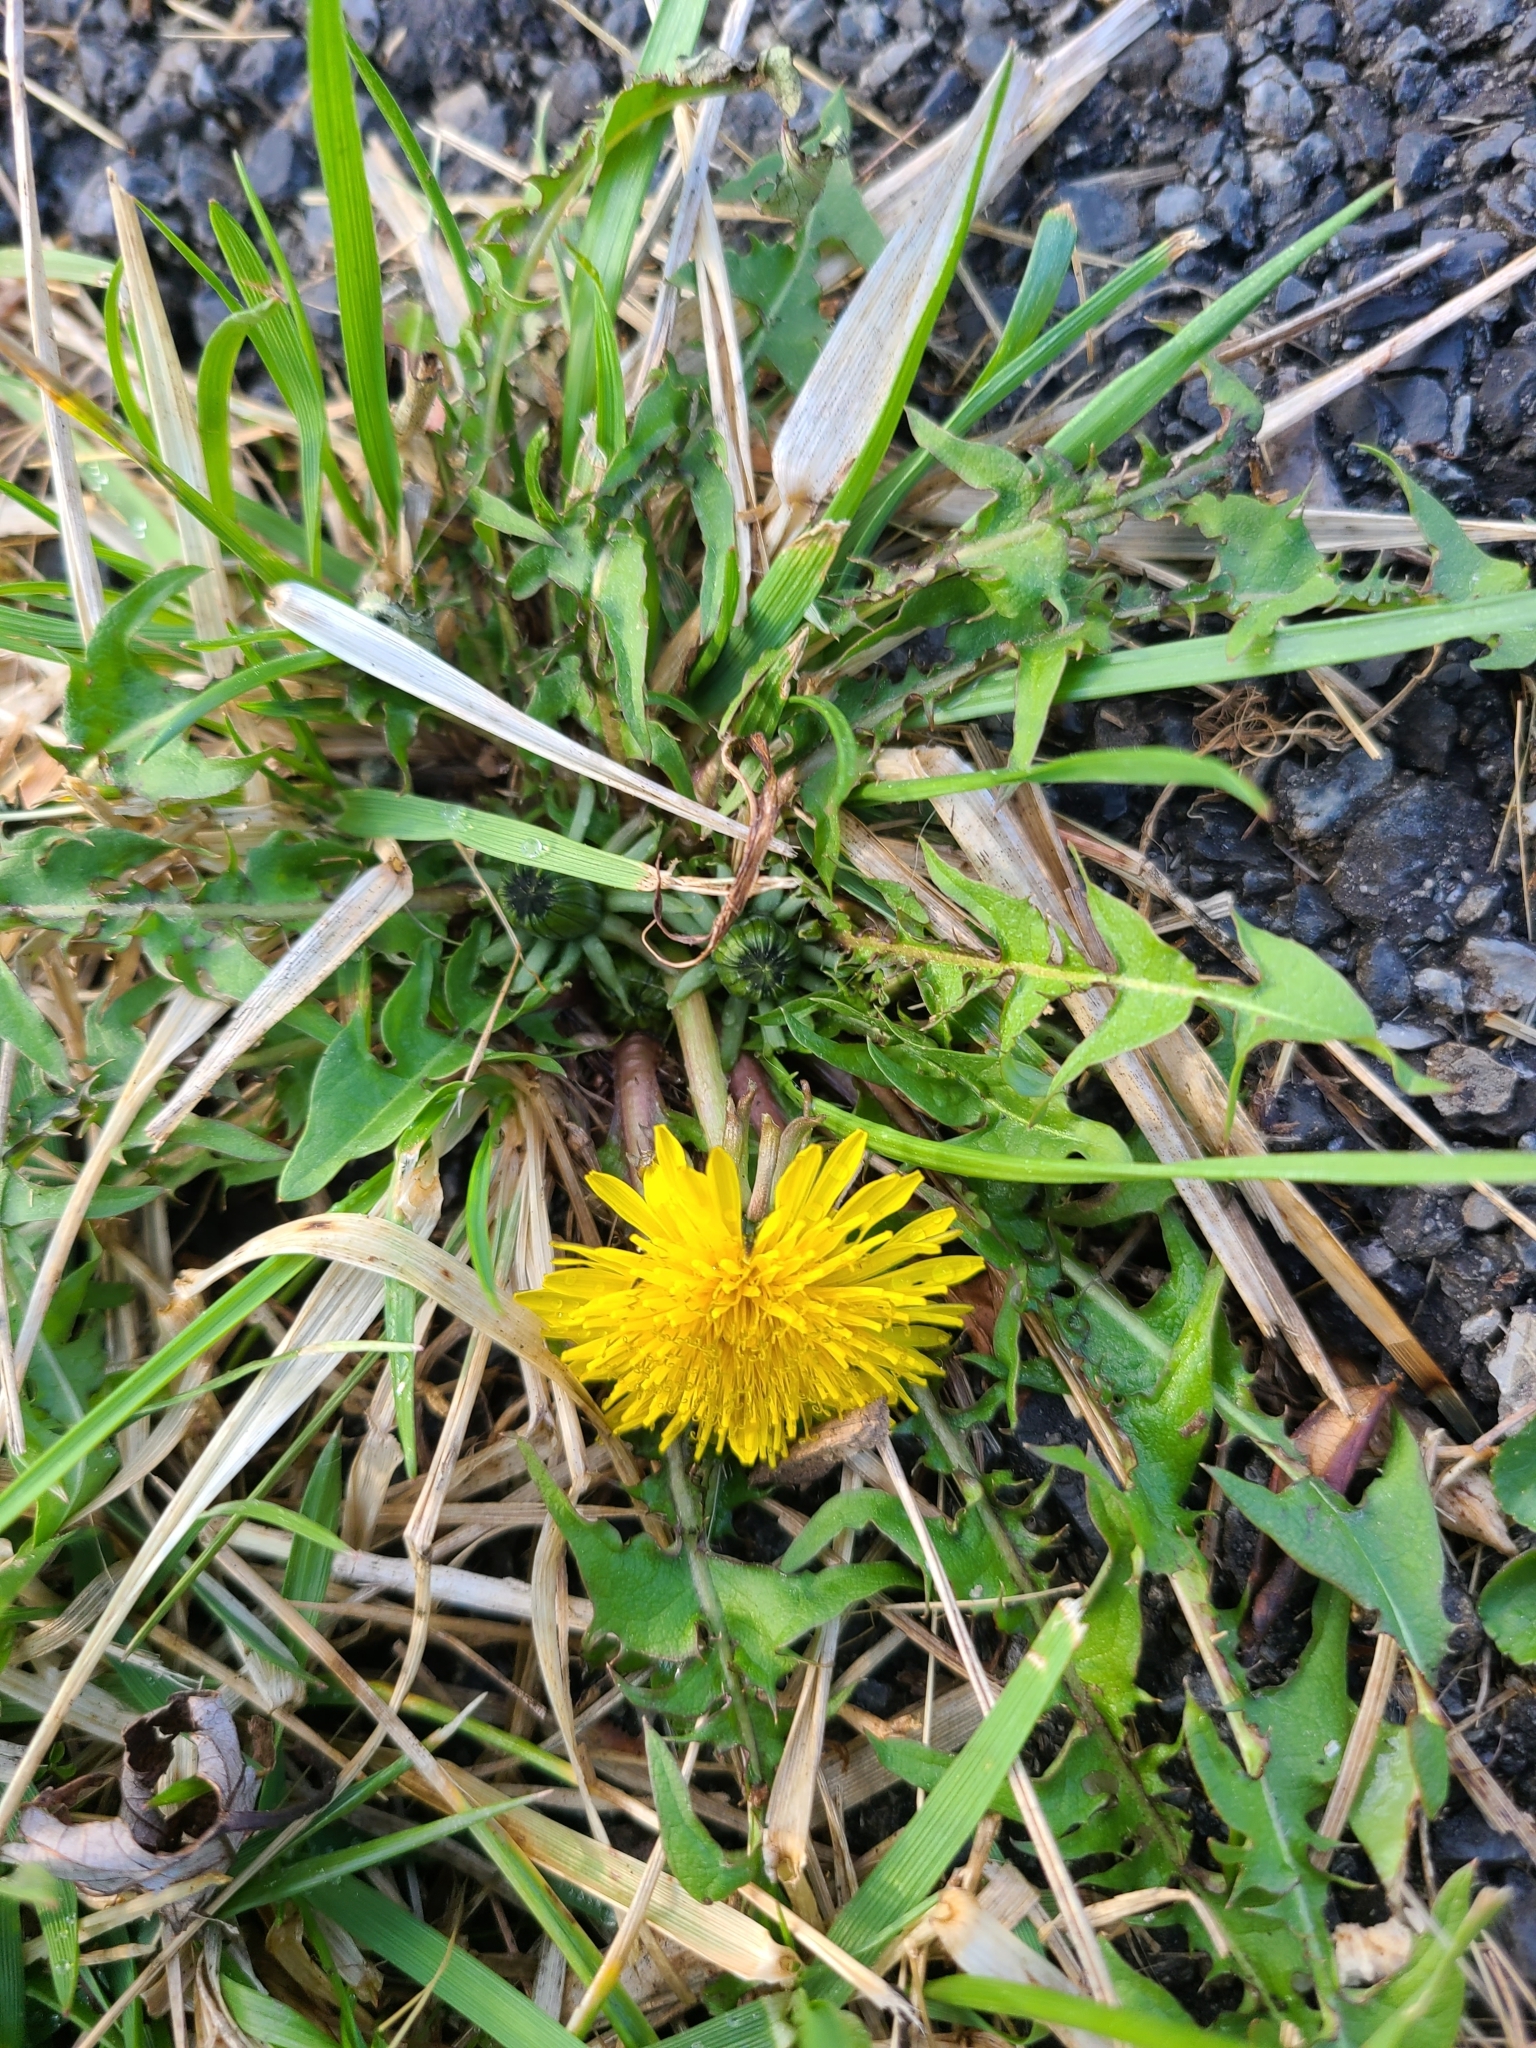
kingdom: Plantae
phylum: Tracheophyta
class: Magnoliopsida
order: Asterales
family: Asteraceae
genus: Taraxacum
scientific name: Taraxacum officinale
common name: Common dandelion
